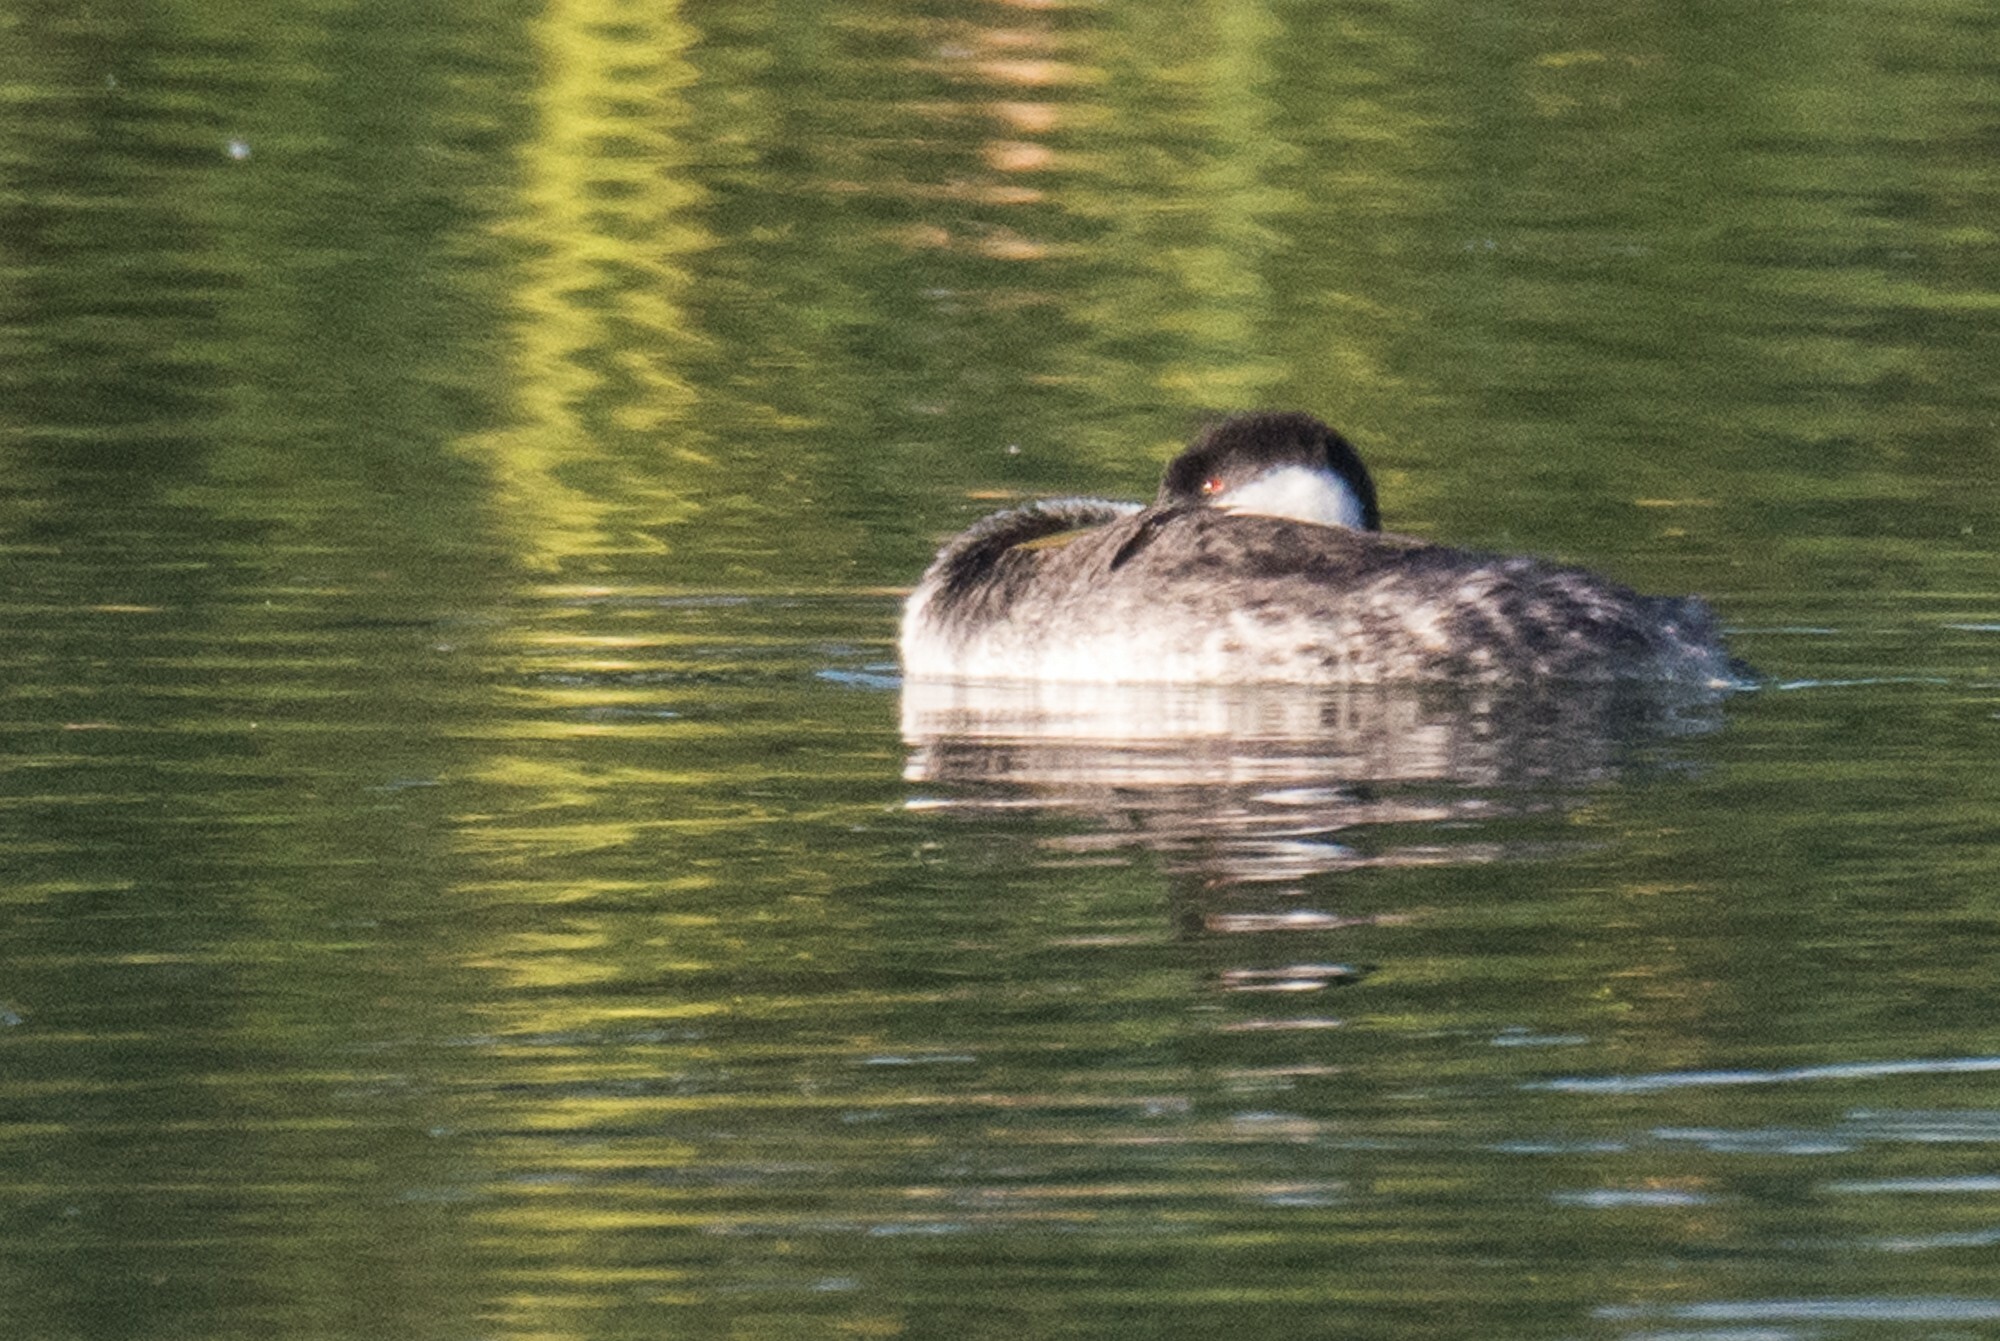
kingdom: Animalia
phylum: Chordata
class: Aves
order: Podicipediformes
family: Podicipedidae
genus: Aechmophorus
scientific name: Aechmophorus occidentalis
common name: Western grebe
